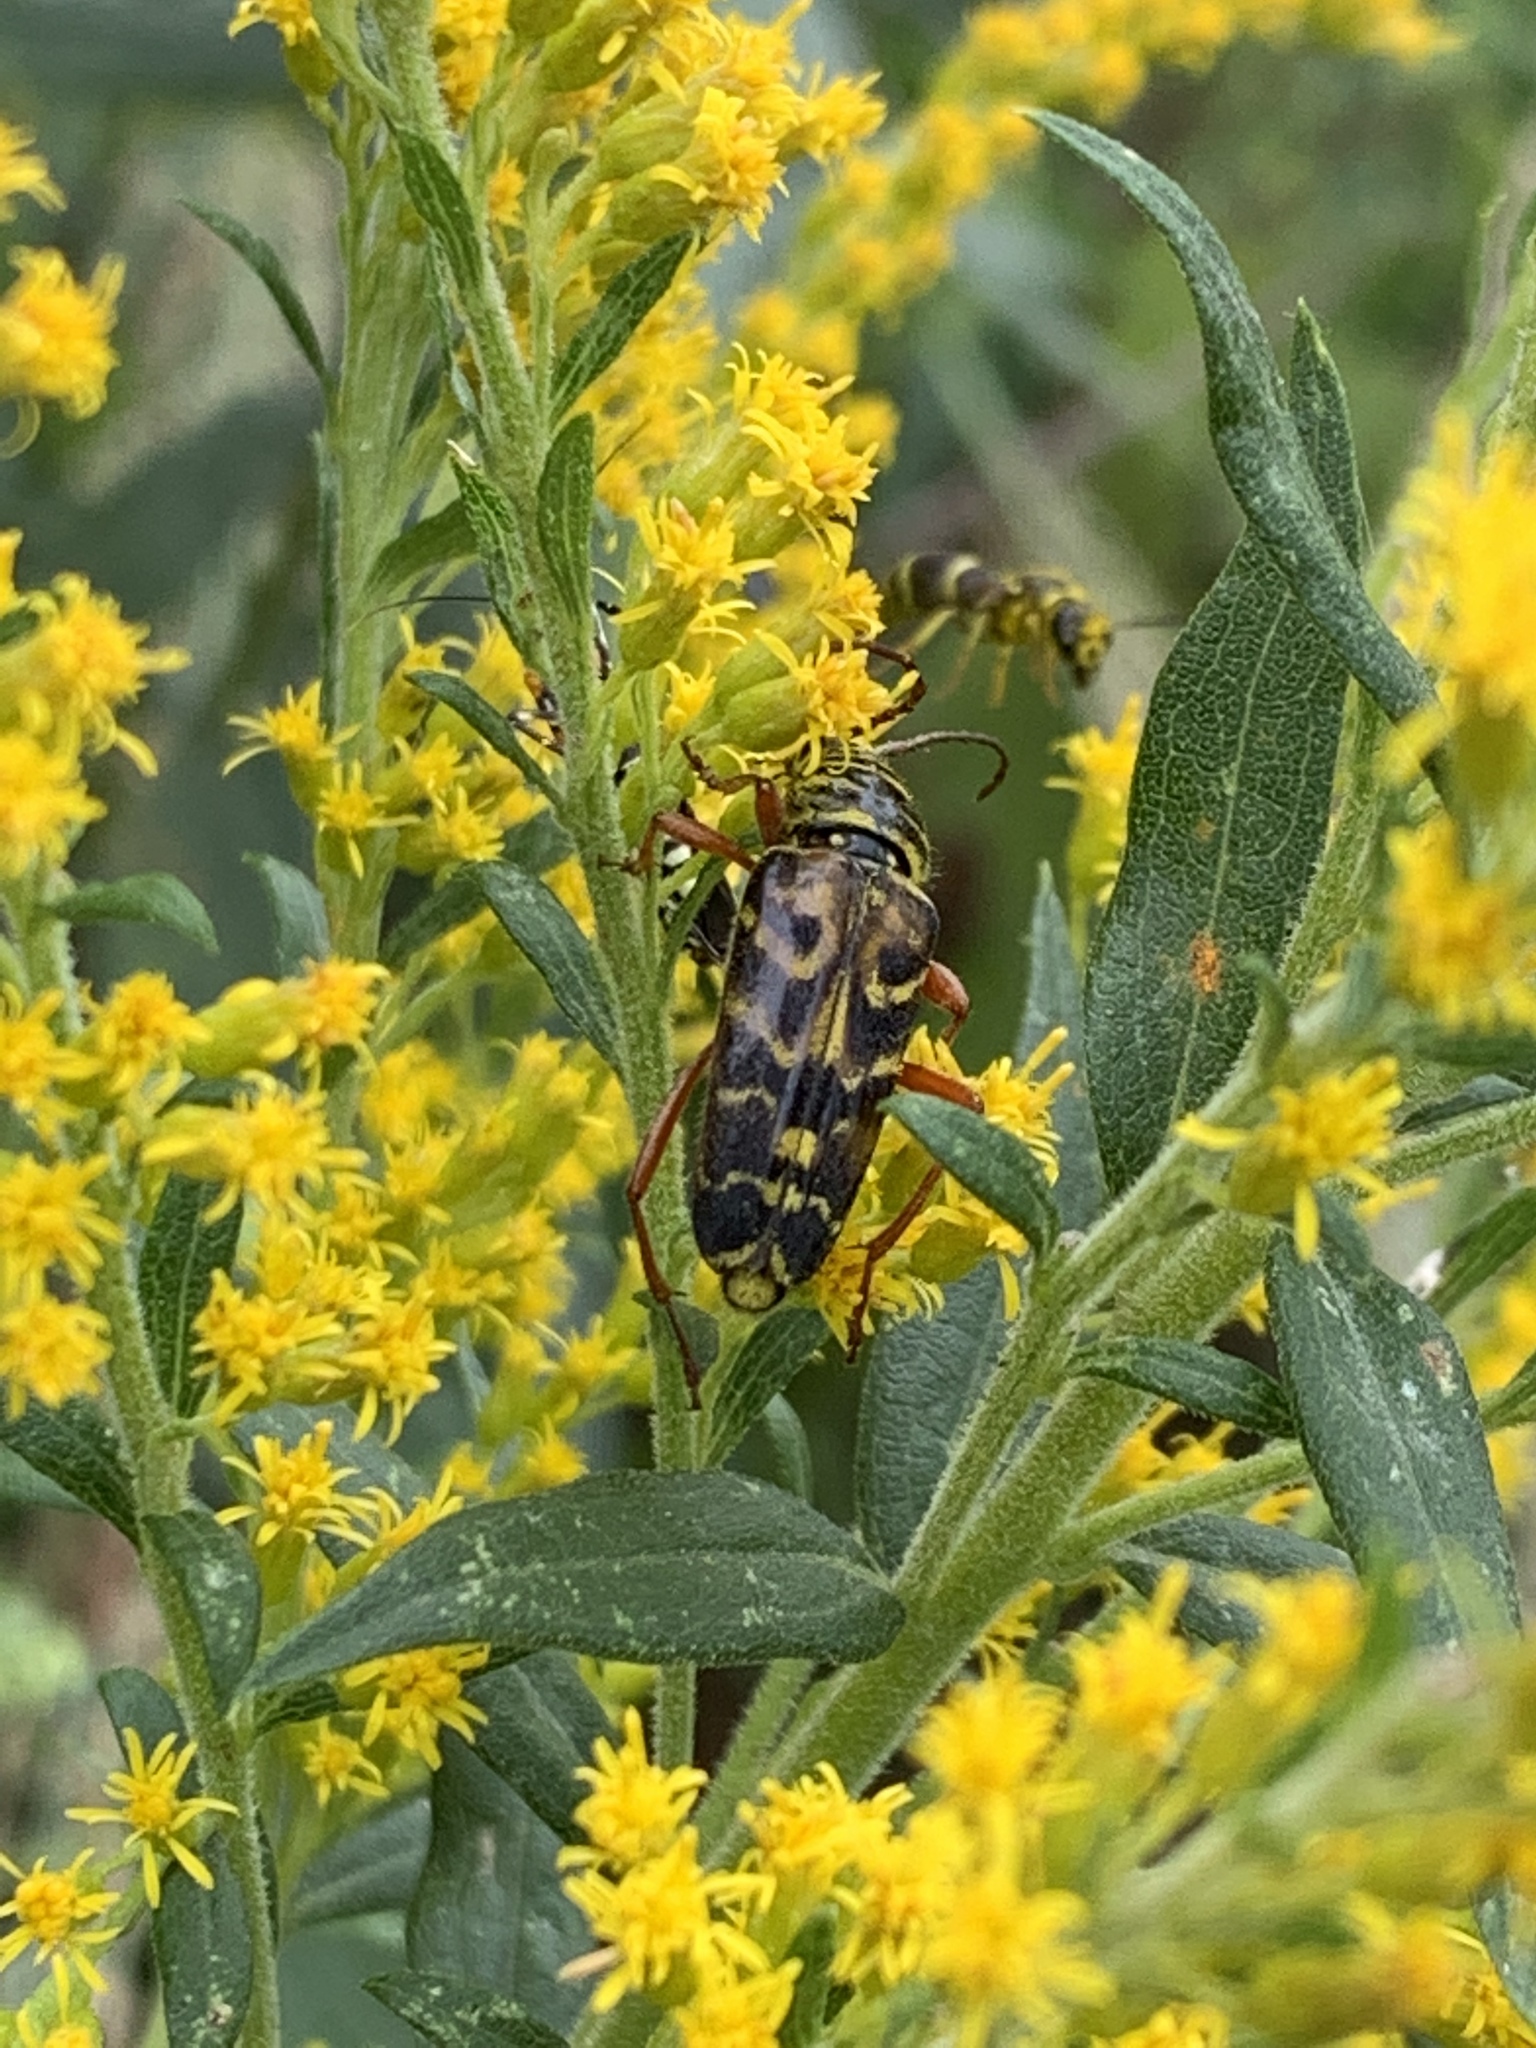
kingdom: Animalia
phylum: Arthropoda
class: Insecta
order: Coleoptera
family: Cerambycidae
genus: Megacyllene
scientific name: Megacyllene robiniae
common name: Locust borer
